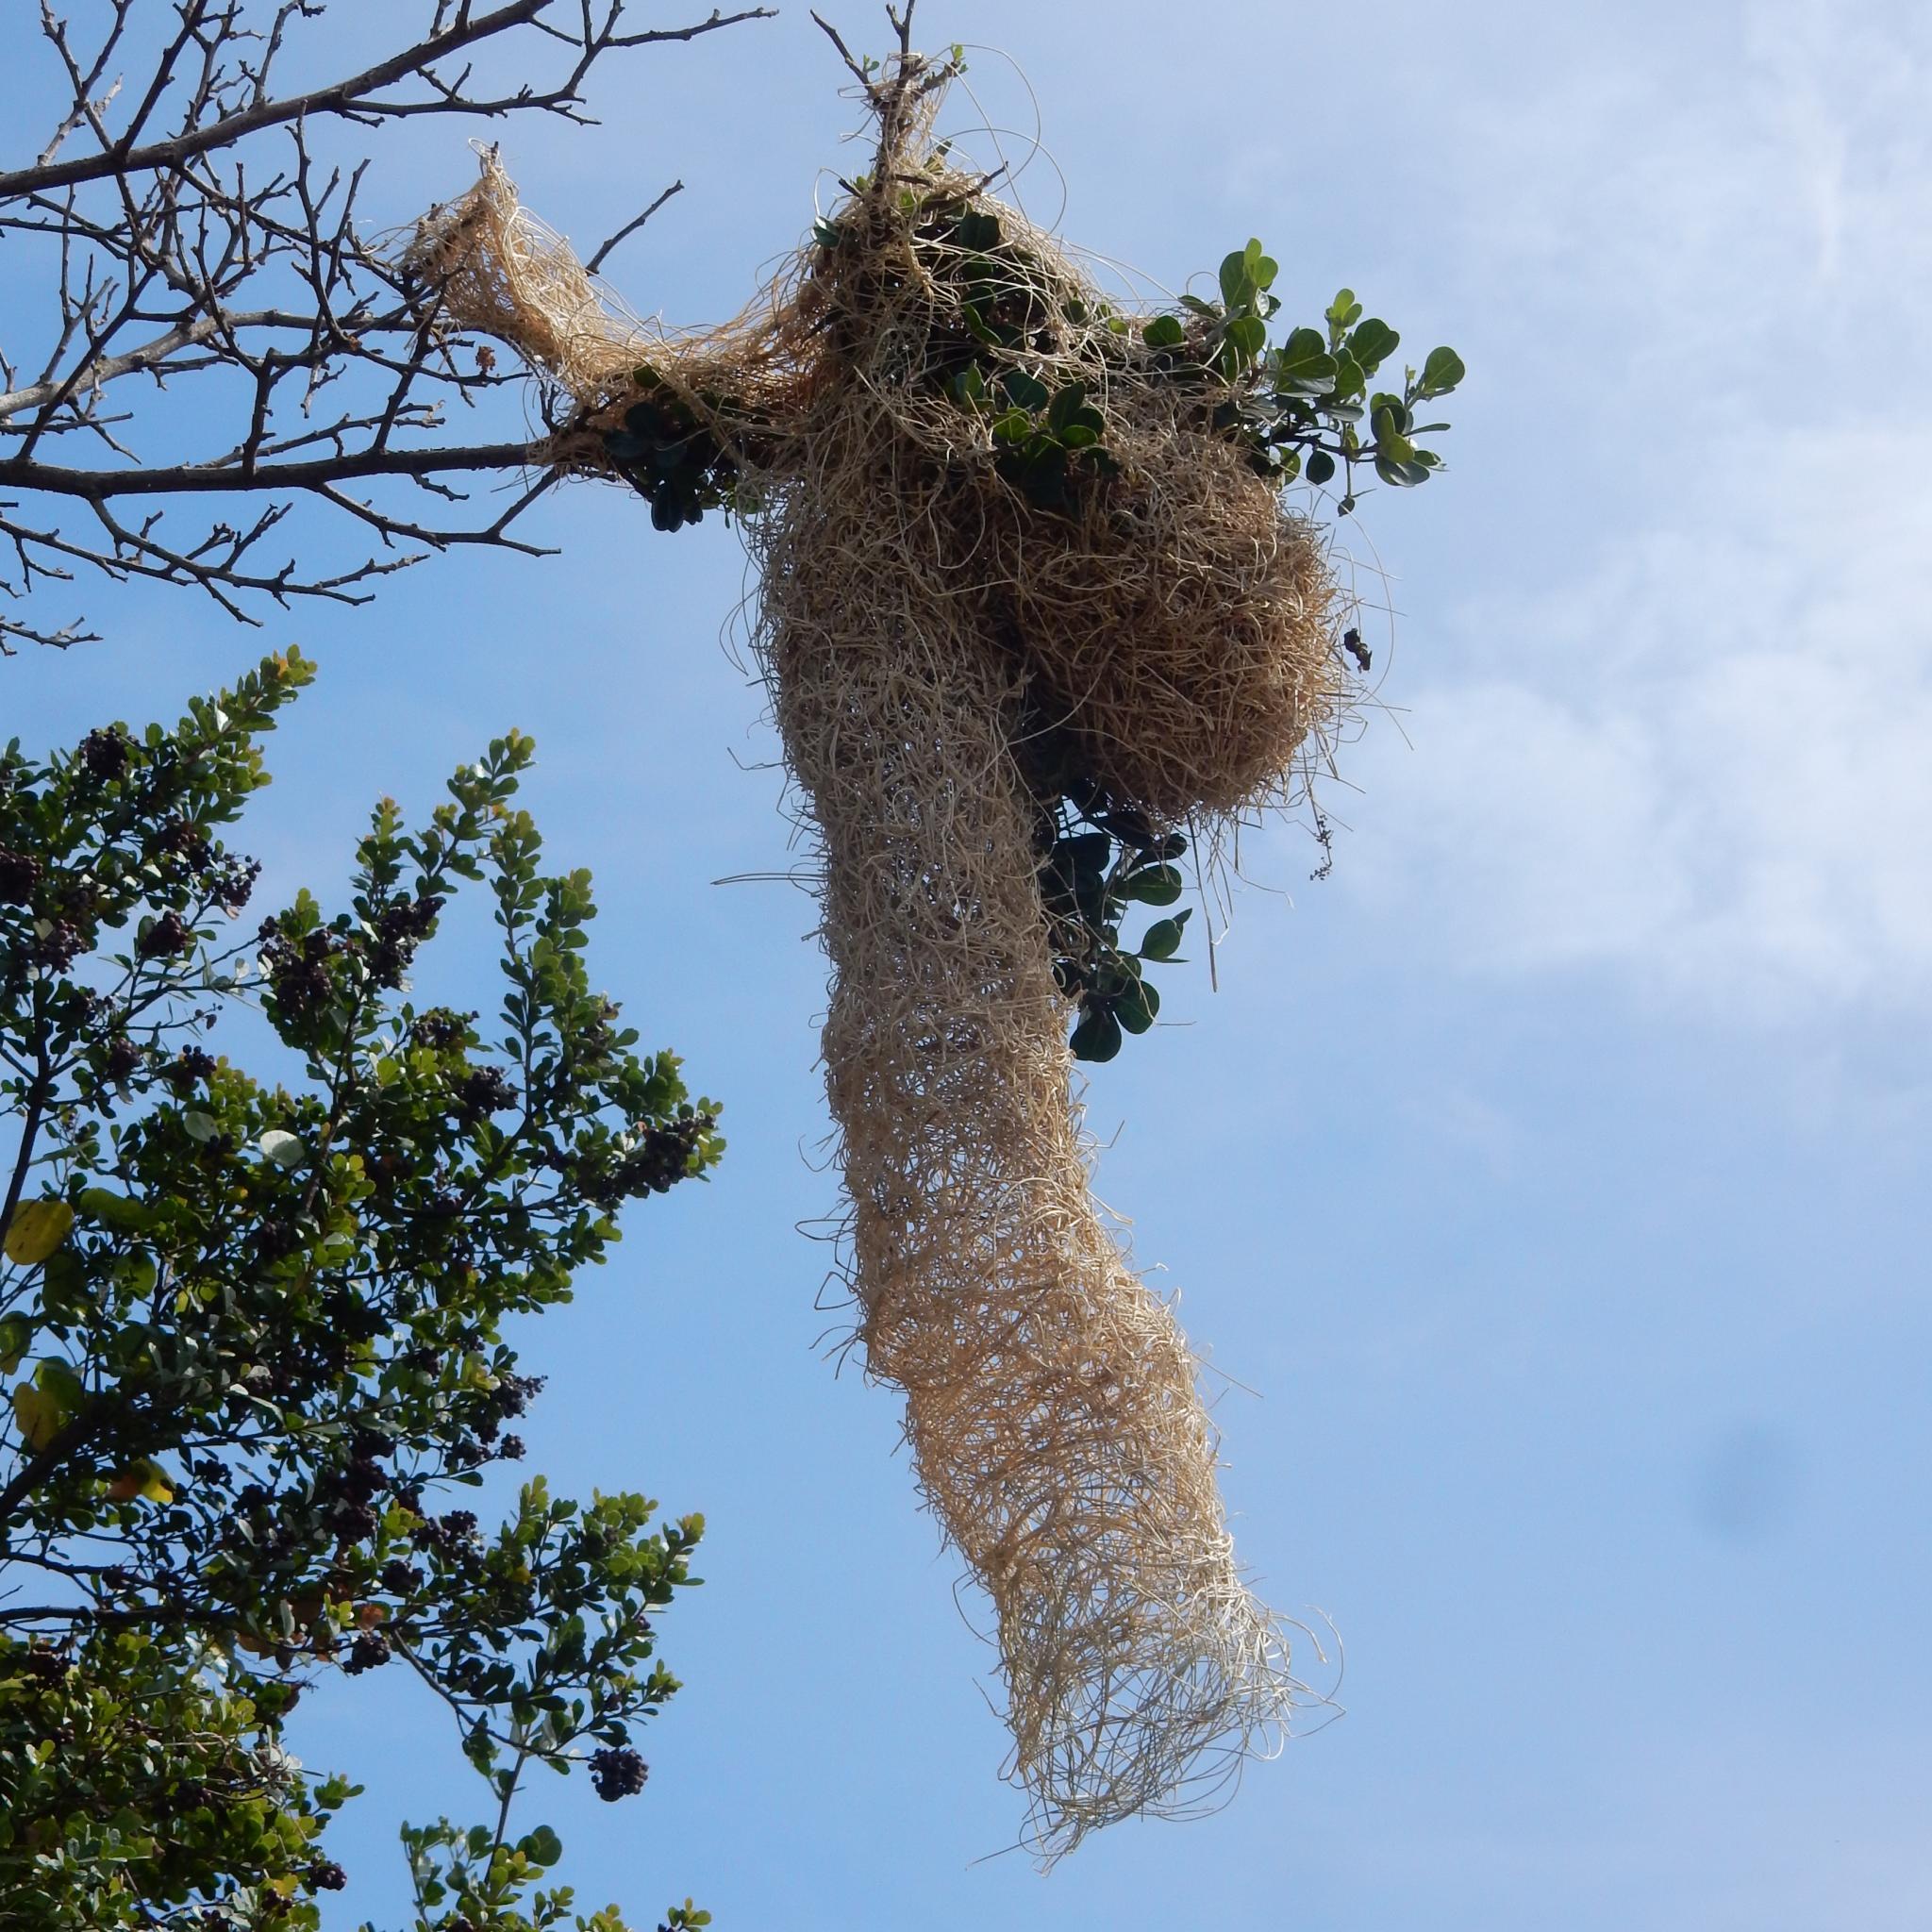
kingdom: Animalia
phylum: Chordata
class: Aves
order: Passeriformes
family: Ploceidae
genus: Ploceus
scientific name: Ploceus ocularis
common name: Spectacled weaver
